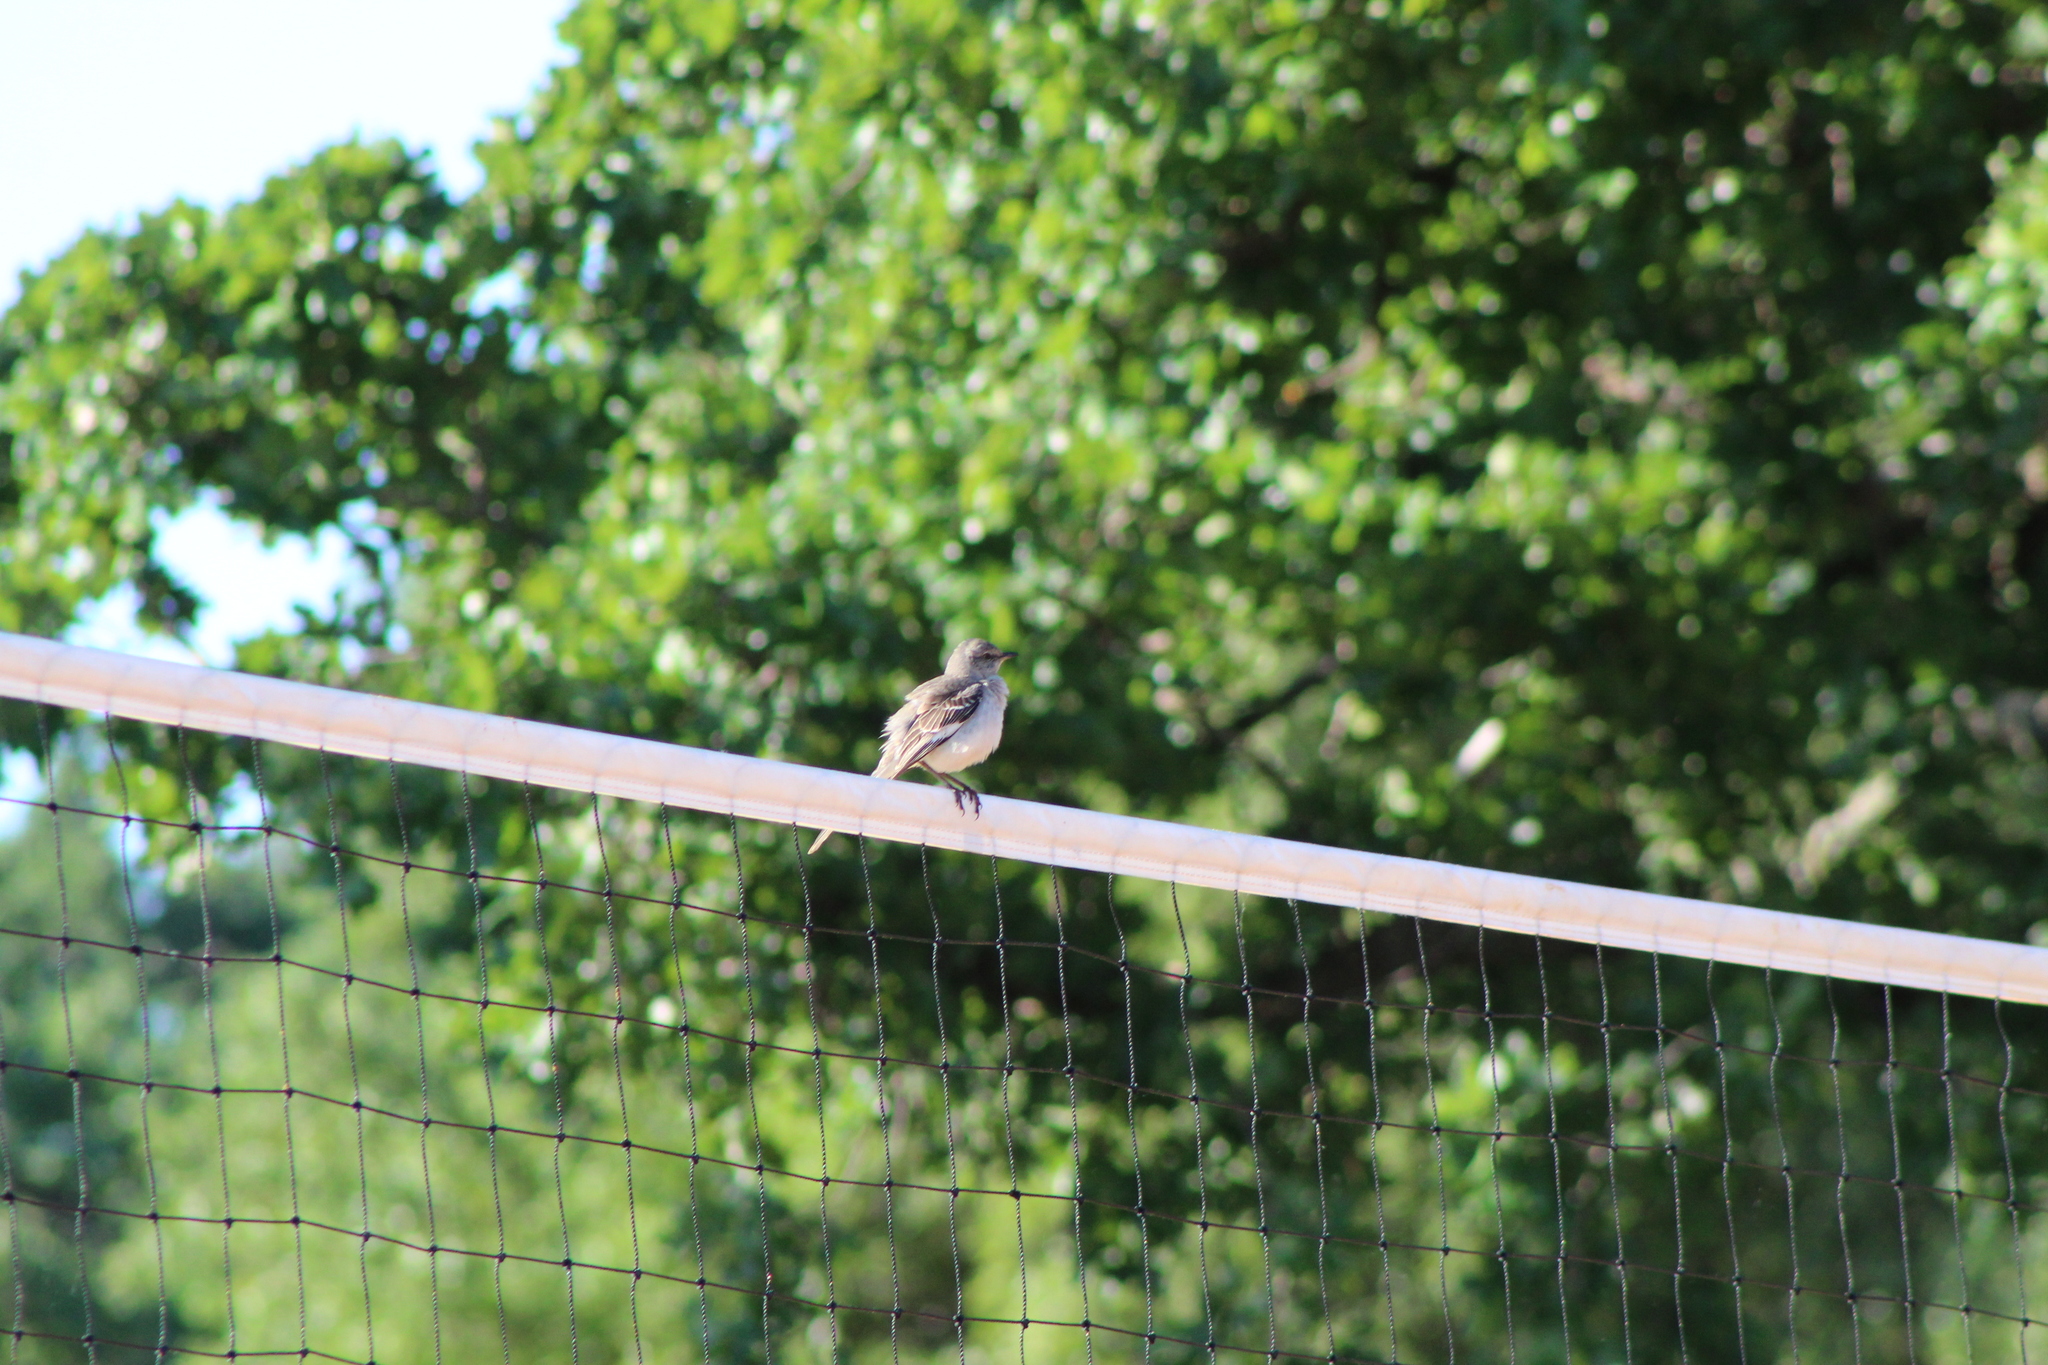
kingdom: Animalia
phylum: Chordata
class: Aves
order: Passeriformes
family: Mimidae
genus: Mimus
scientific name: Mimus polyglottos
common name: Northern mockingbird
